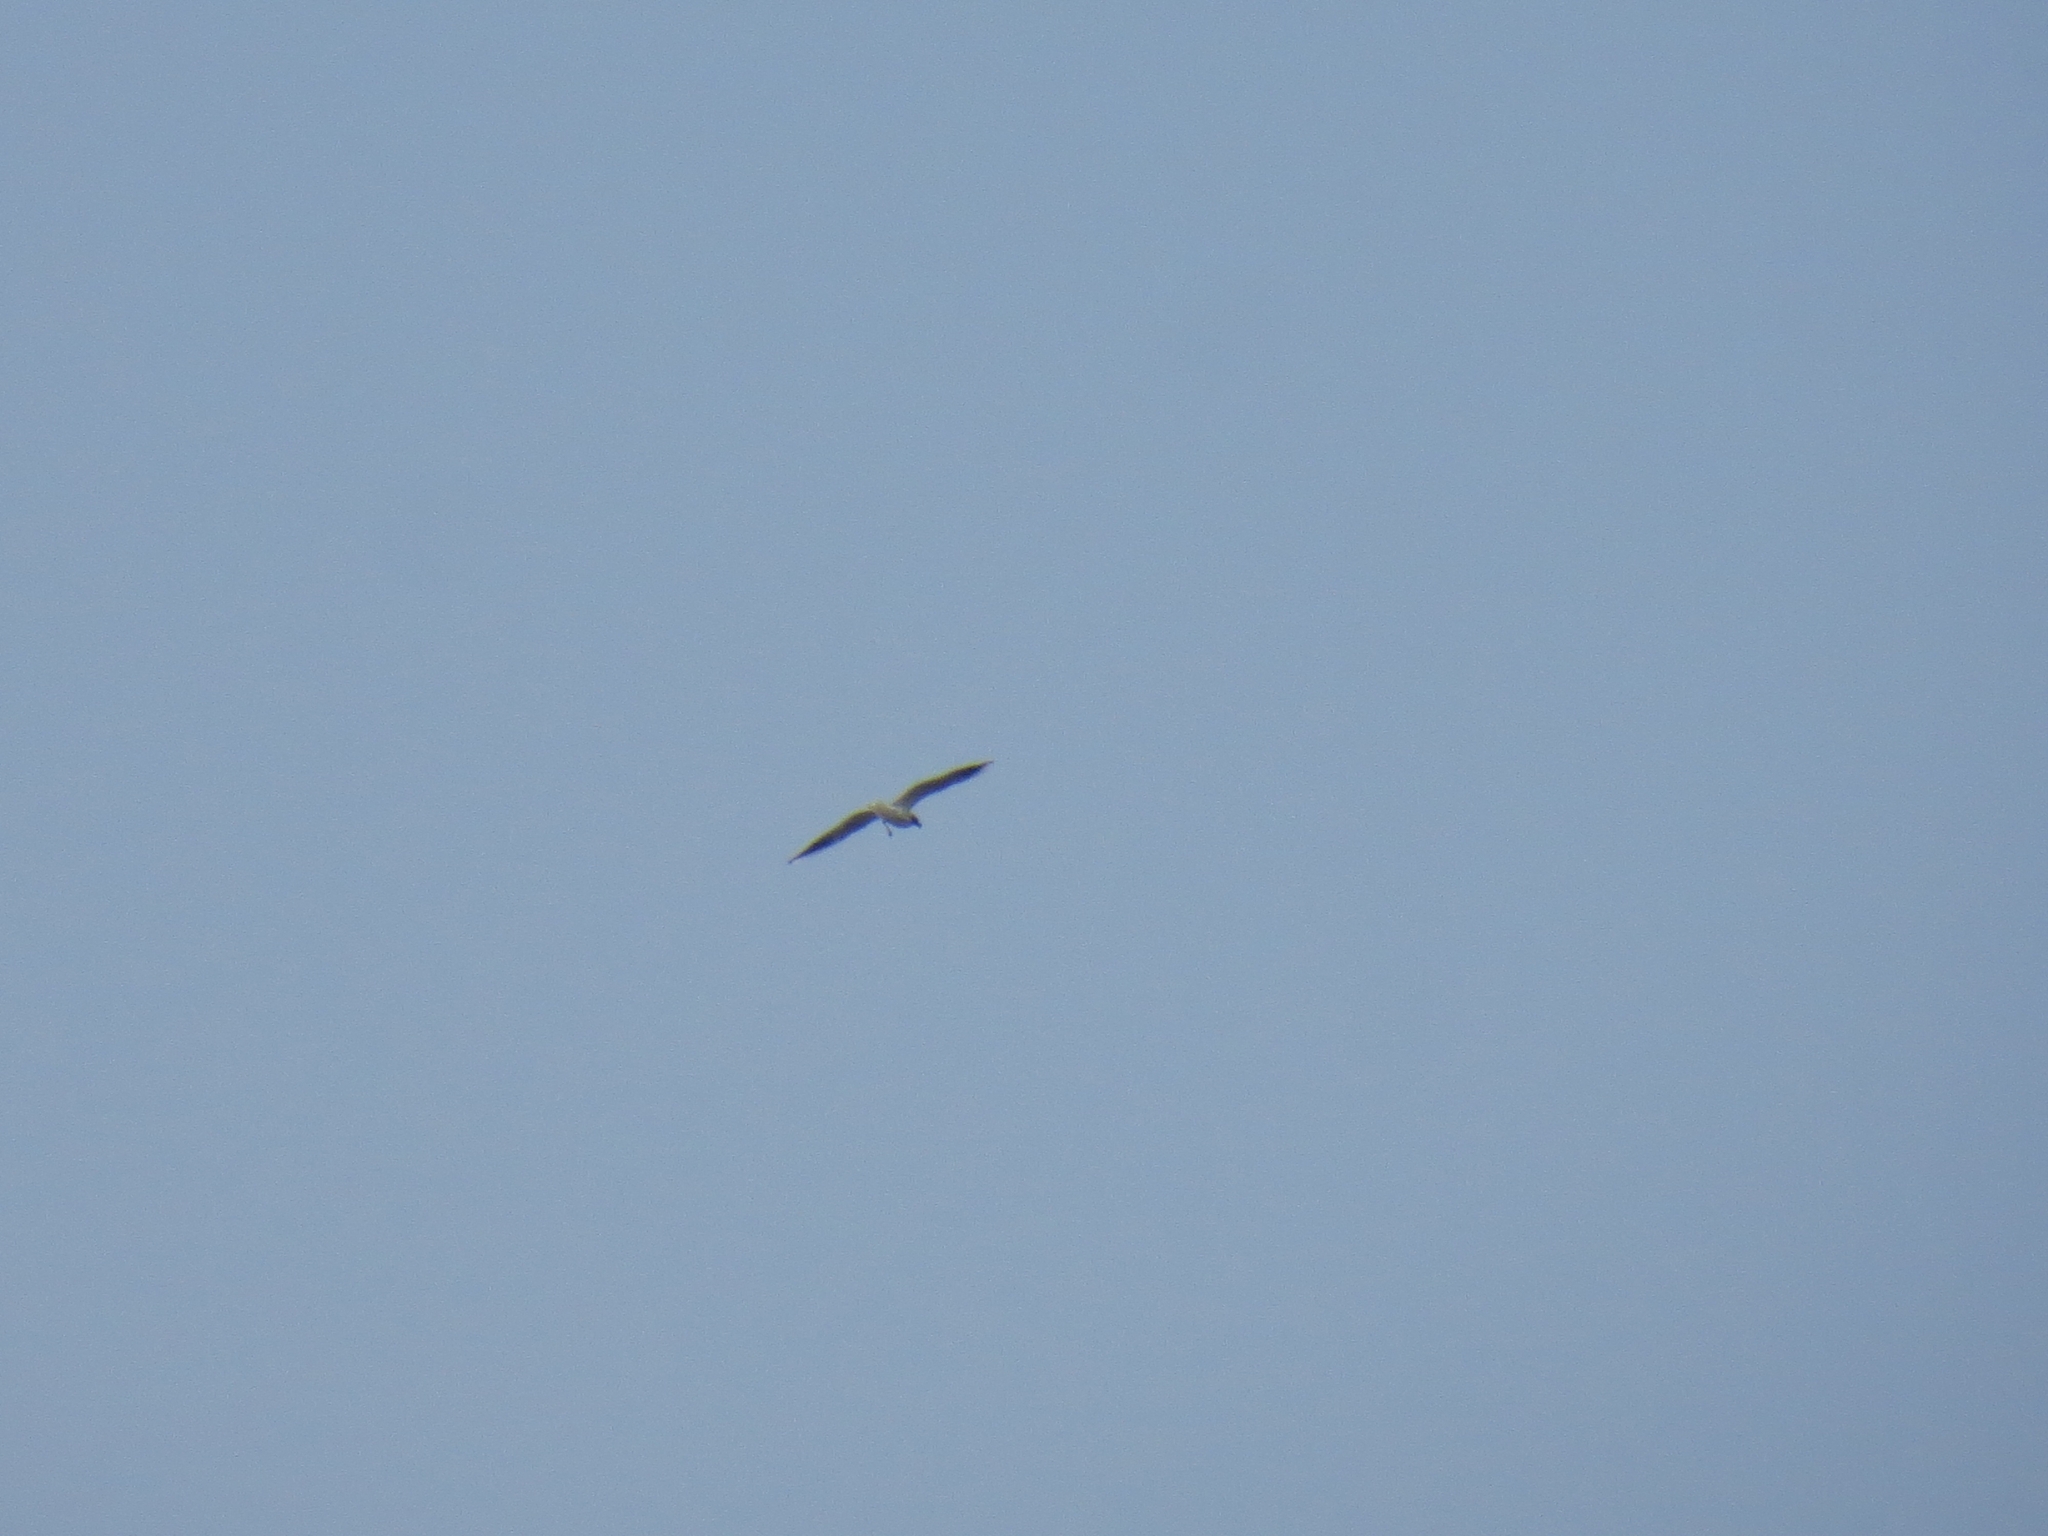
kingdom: Animalia
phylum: Chordata
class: Aves
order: Charadriiformes
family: Laridae
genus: Chroicocephalus
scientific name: Chroicocephalus ridibundus
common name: Black-headed gull
